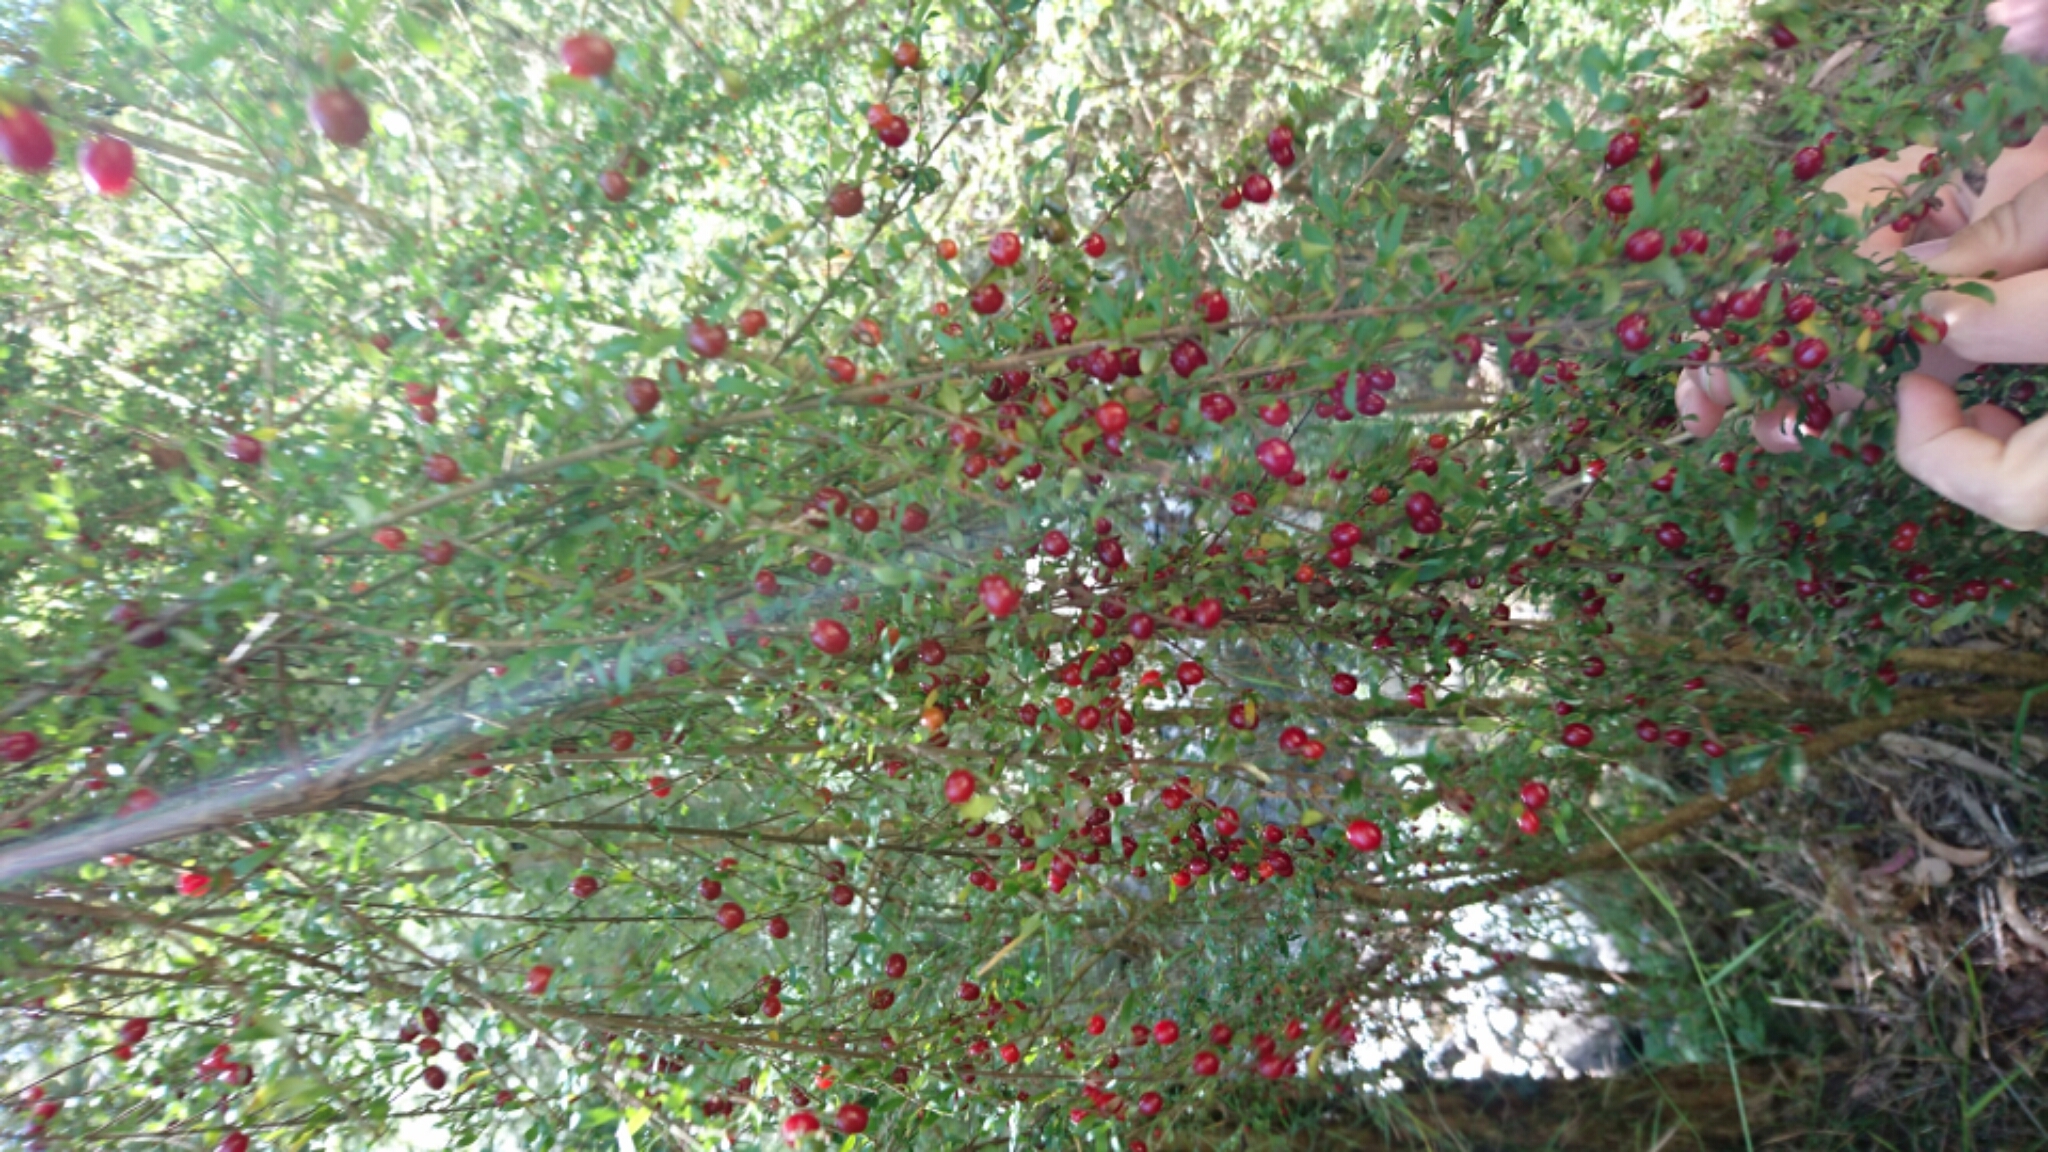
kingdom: Plantae
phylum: Tracheophyta
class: Magnoliopsida
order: Gentianales
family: Rubiaceae
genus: Coprosma
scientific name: Coprosma quadrifida
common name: Prickly currantbush
